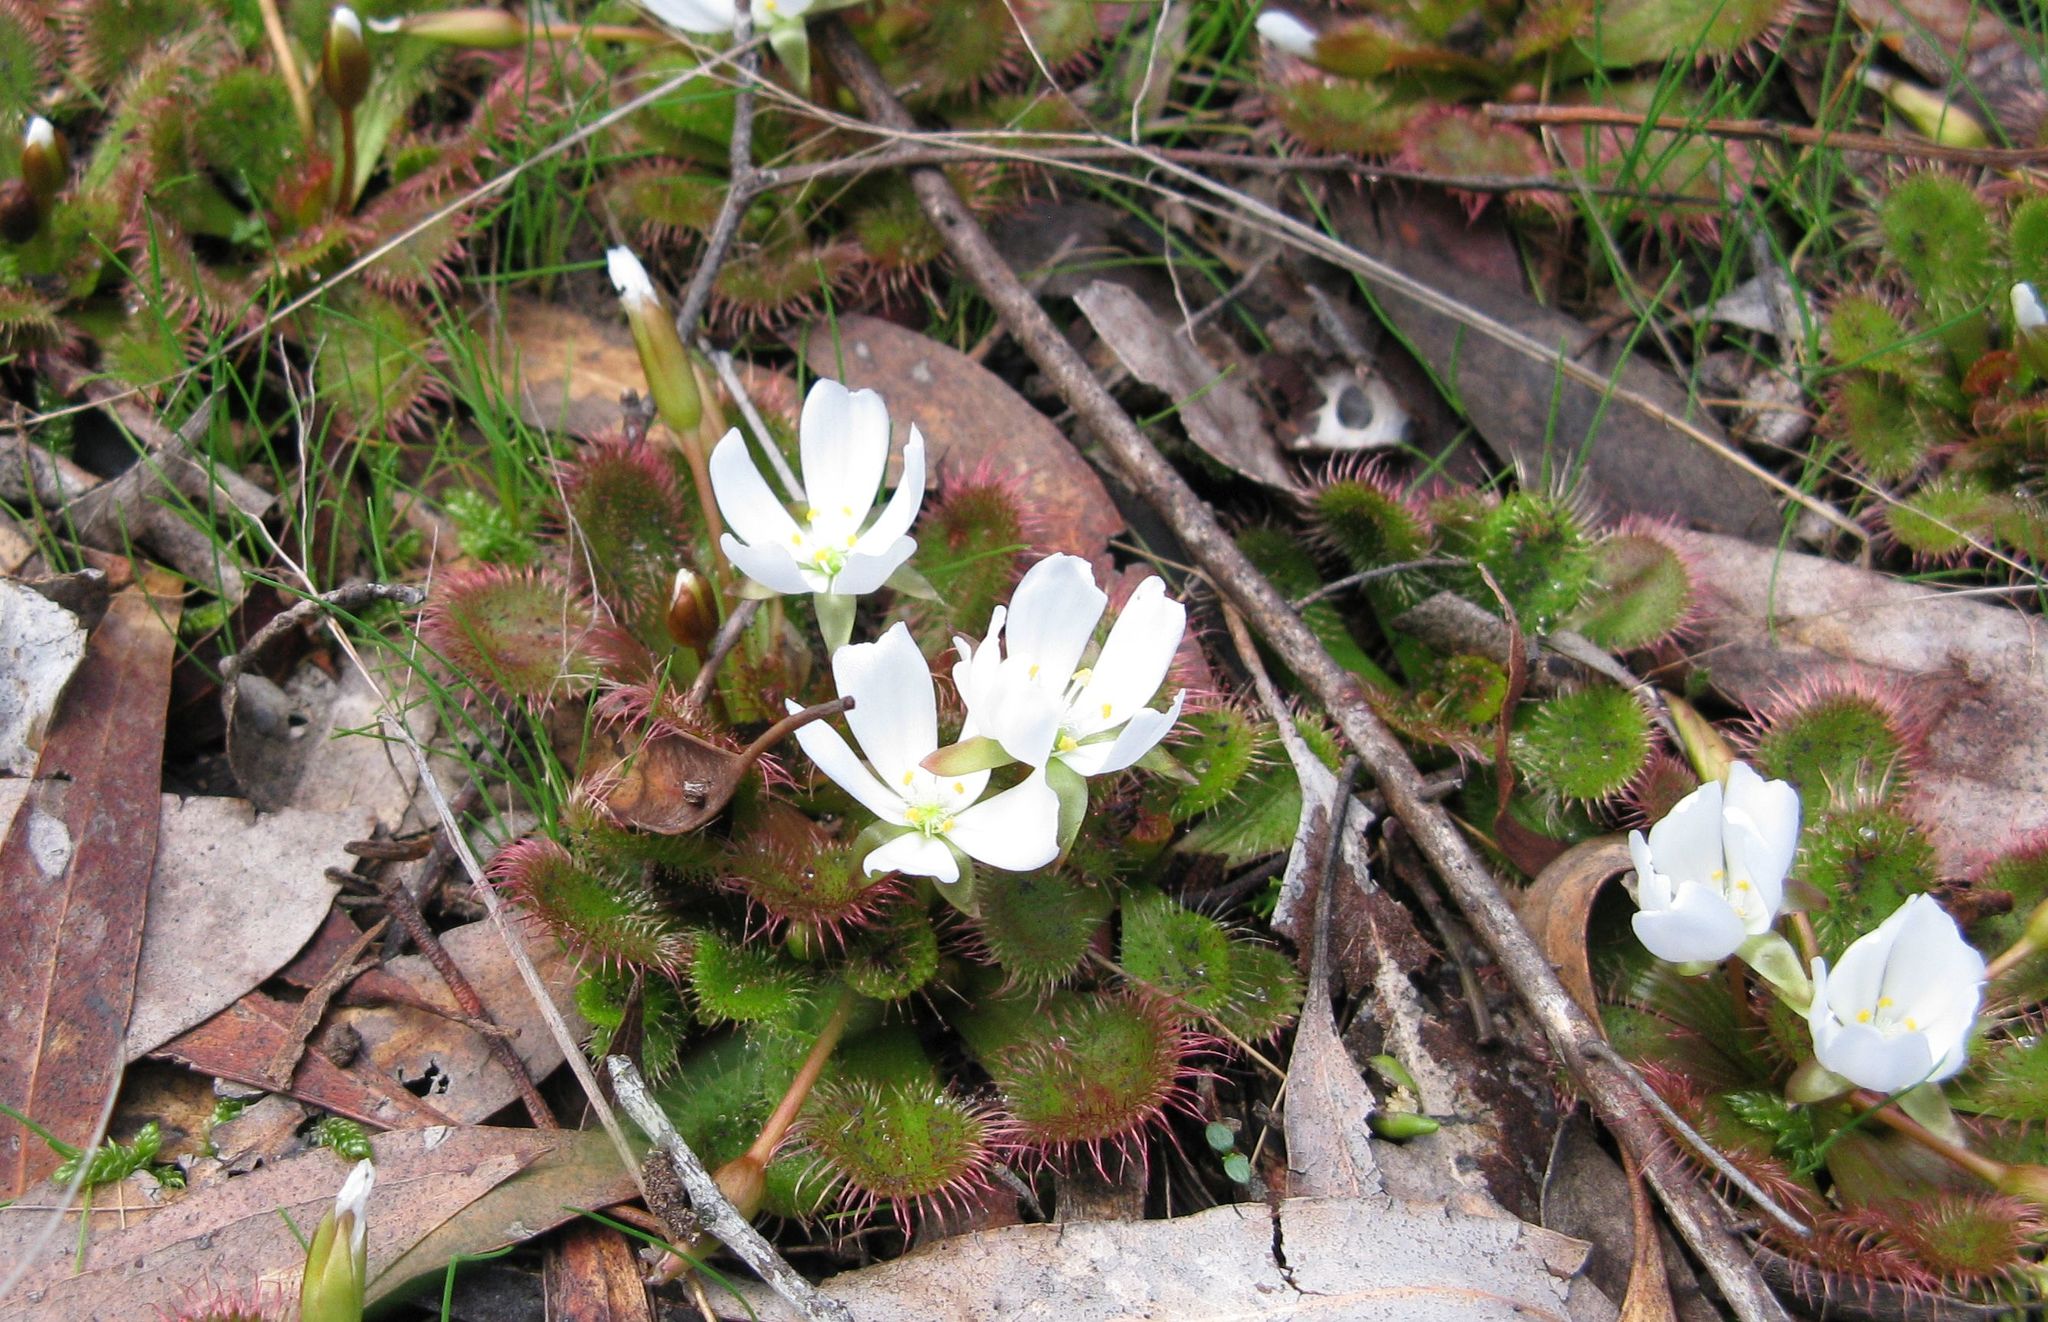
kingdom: Plantae
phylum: Tracheophyta
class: Magnoliopsida
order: Caryophyllales
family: Droseraceae
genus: Drosera
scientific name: Drosera aberrans
